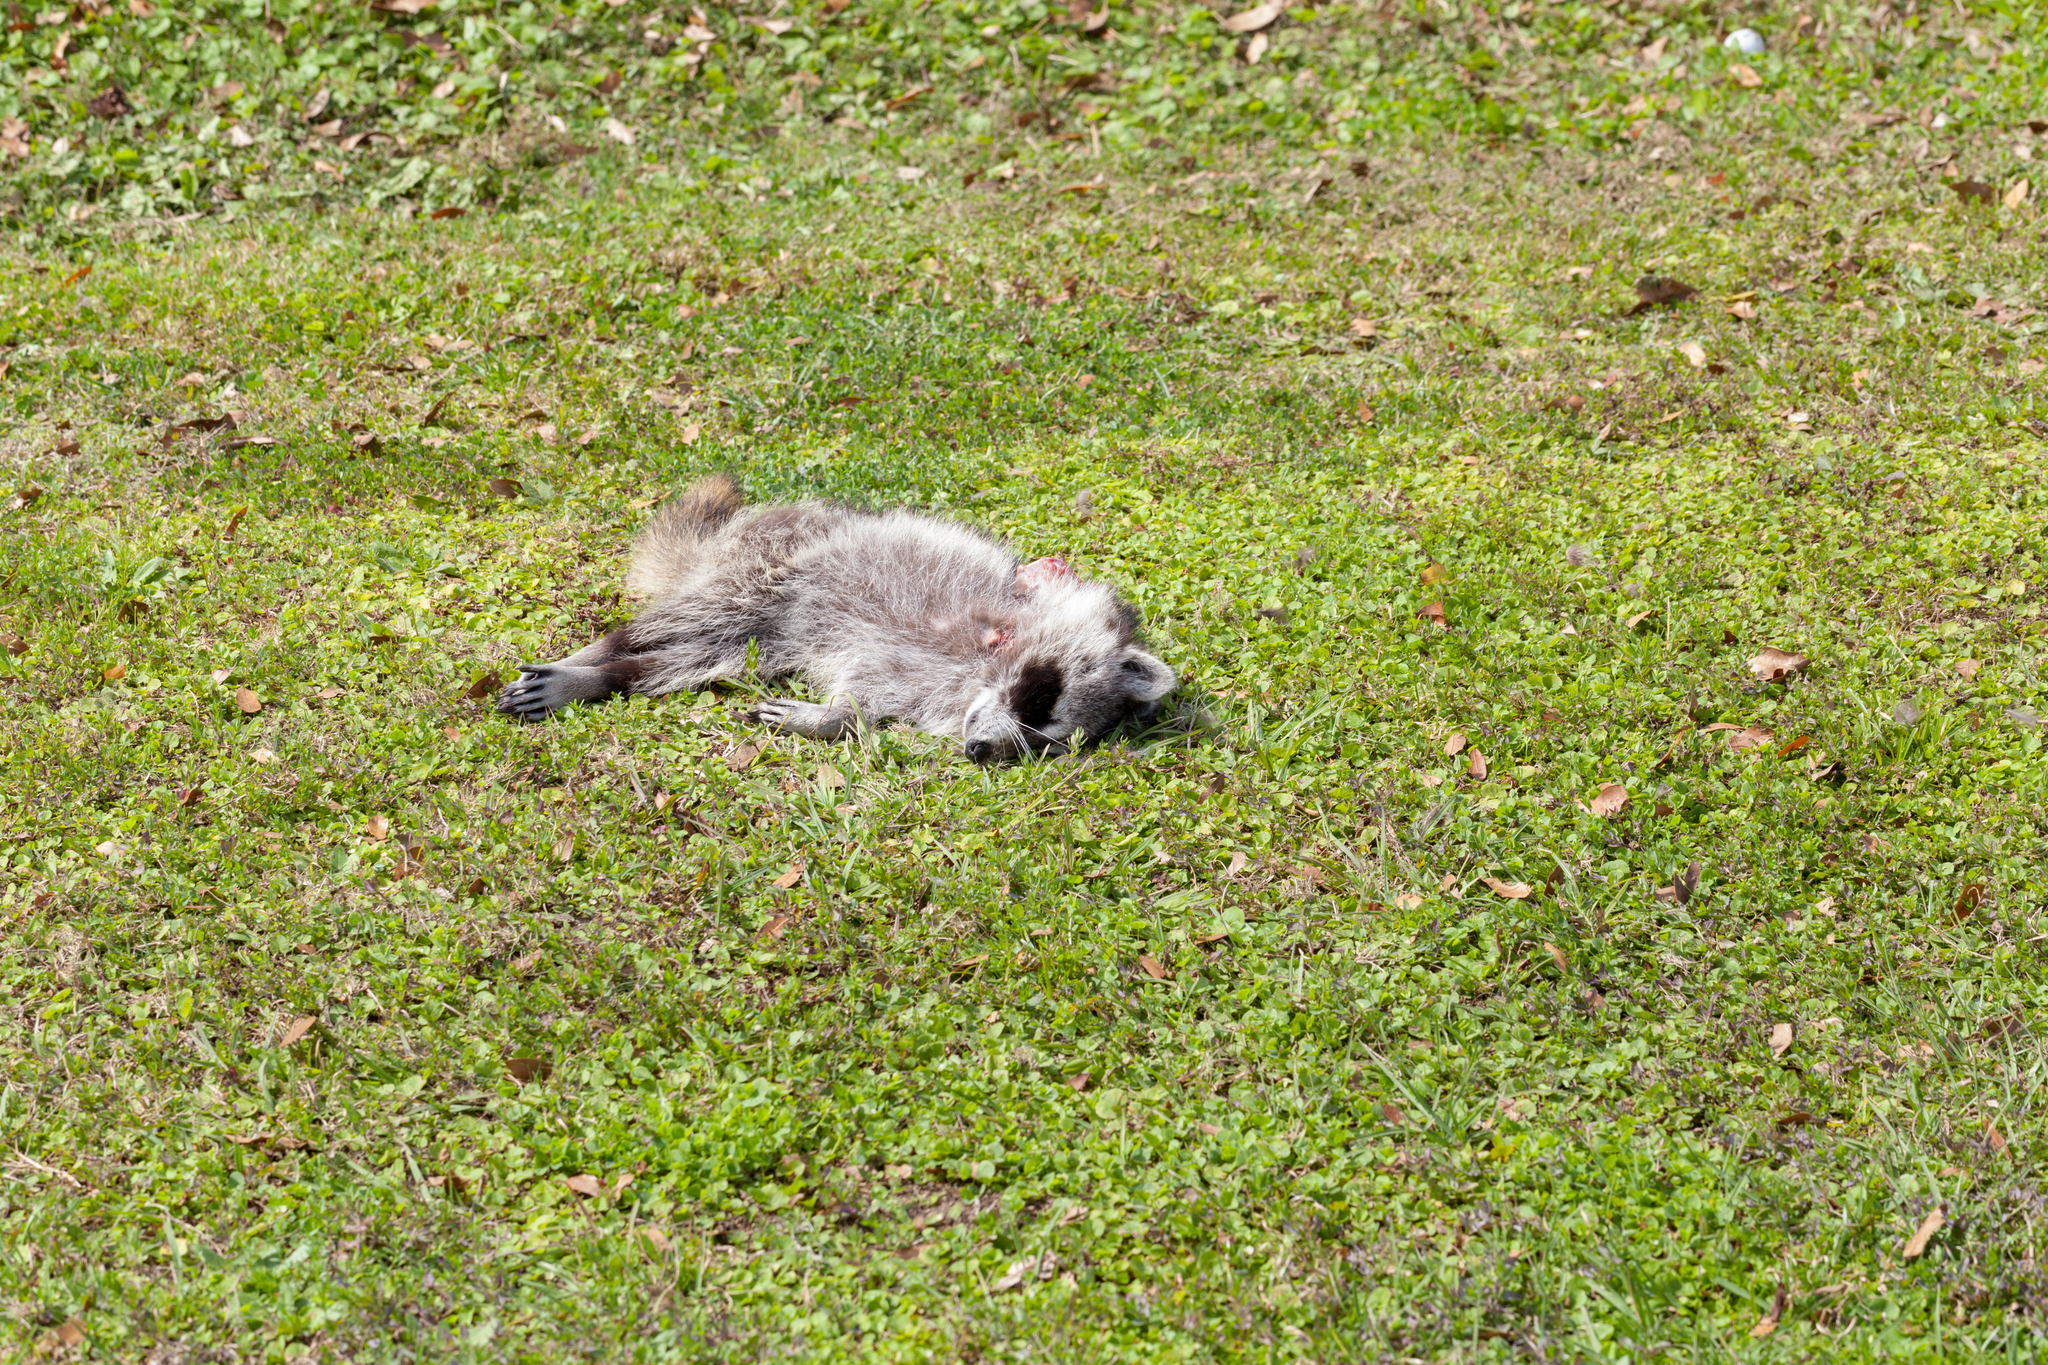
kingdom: Animalia
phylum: Chordata
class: Mammalia
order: Carnivora
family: Procyonidae
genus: Procyon
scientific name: Procyon lotor
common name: Raccoon
